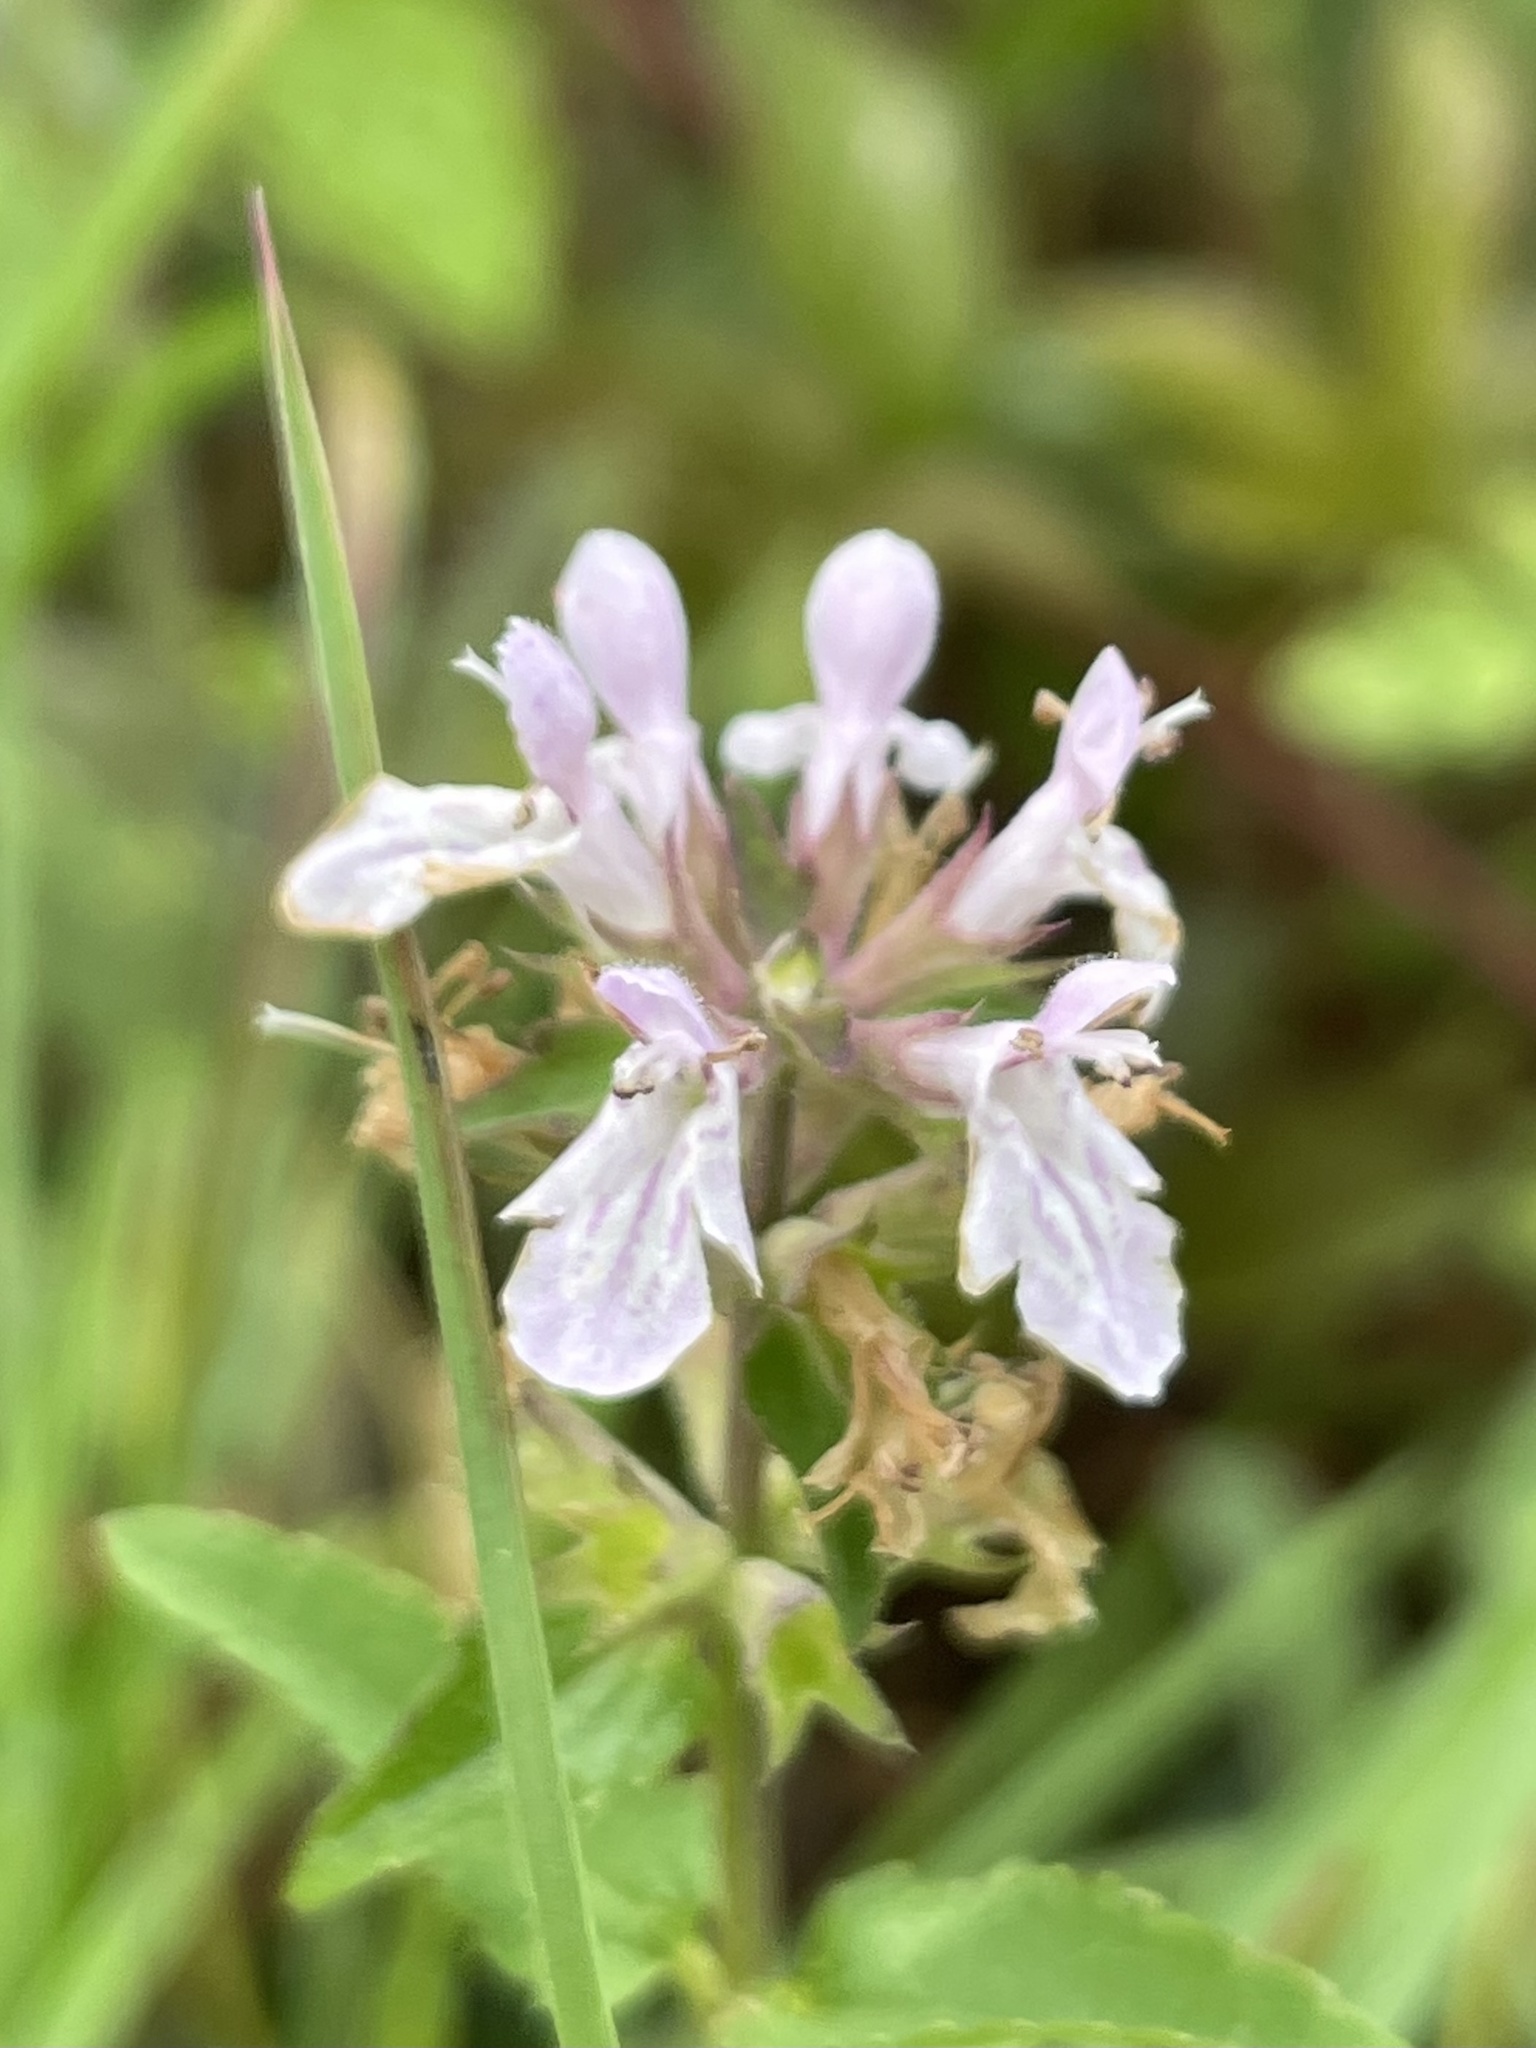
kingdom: Plantae
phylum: Tracheophyta
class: Magnoliopsida
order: Lamiales
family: Lamiaceae
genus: Stachys
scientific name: Stachys floridana
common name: Florida betony
